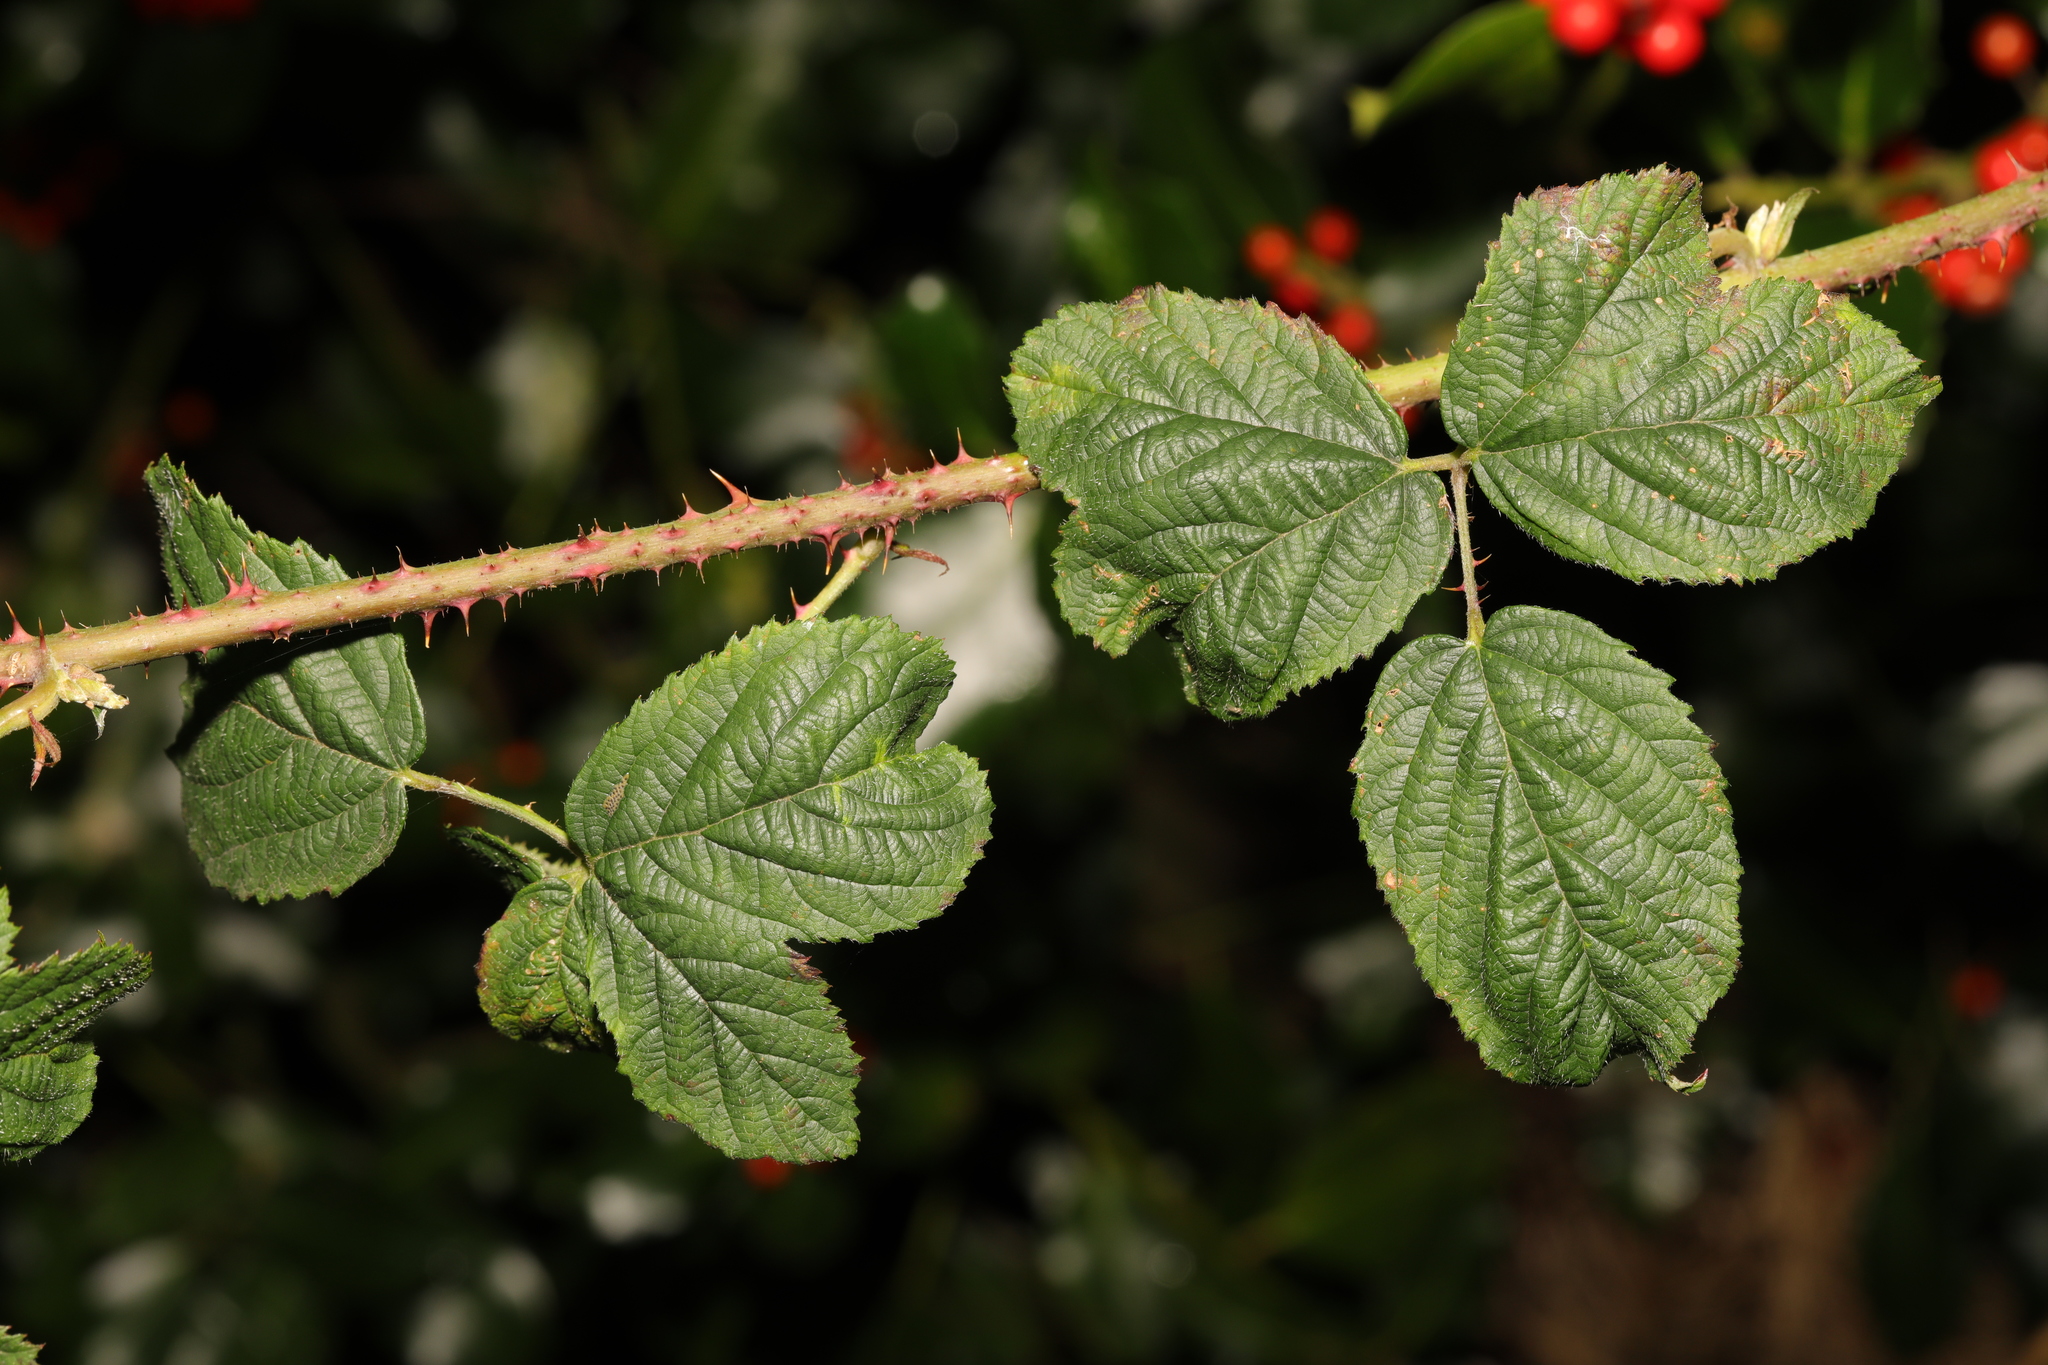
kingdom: Plantae
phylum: Tracheophyta
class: Magnoliopsida
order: Rosales
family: Rosaceae
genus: Rubus
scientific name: Rubus horrefactus
